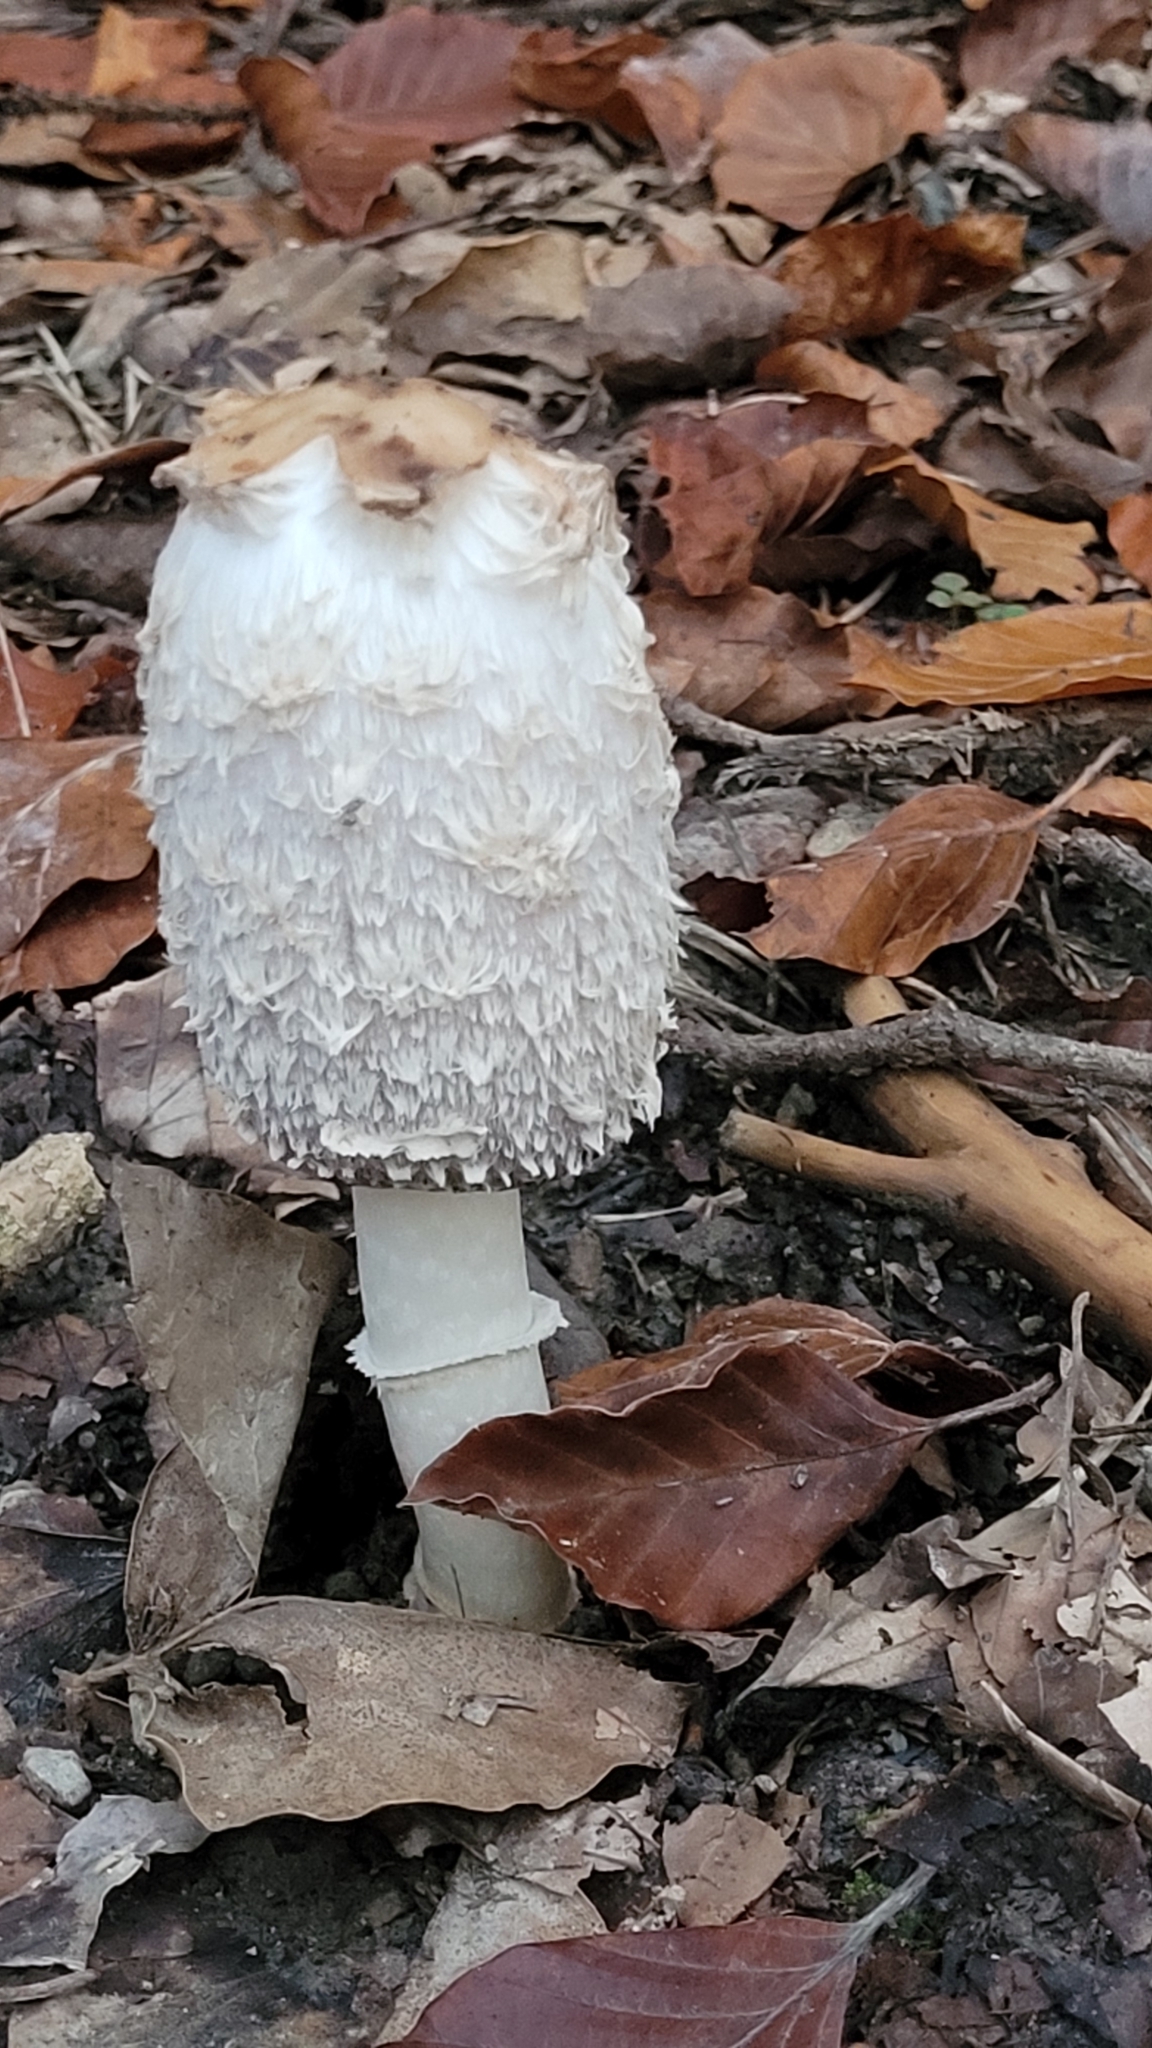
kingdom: Fungi
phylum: Basidiomycota
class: Agaricomycetes
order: Agaricales
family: Agaricaceae
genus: Coprinus
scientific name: Coprinus comatus
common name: Lawyer's wig
